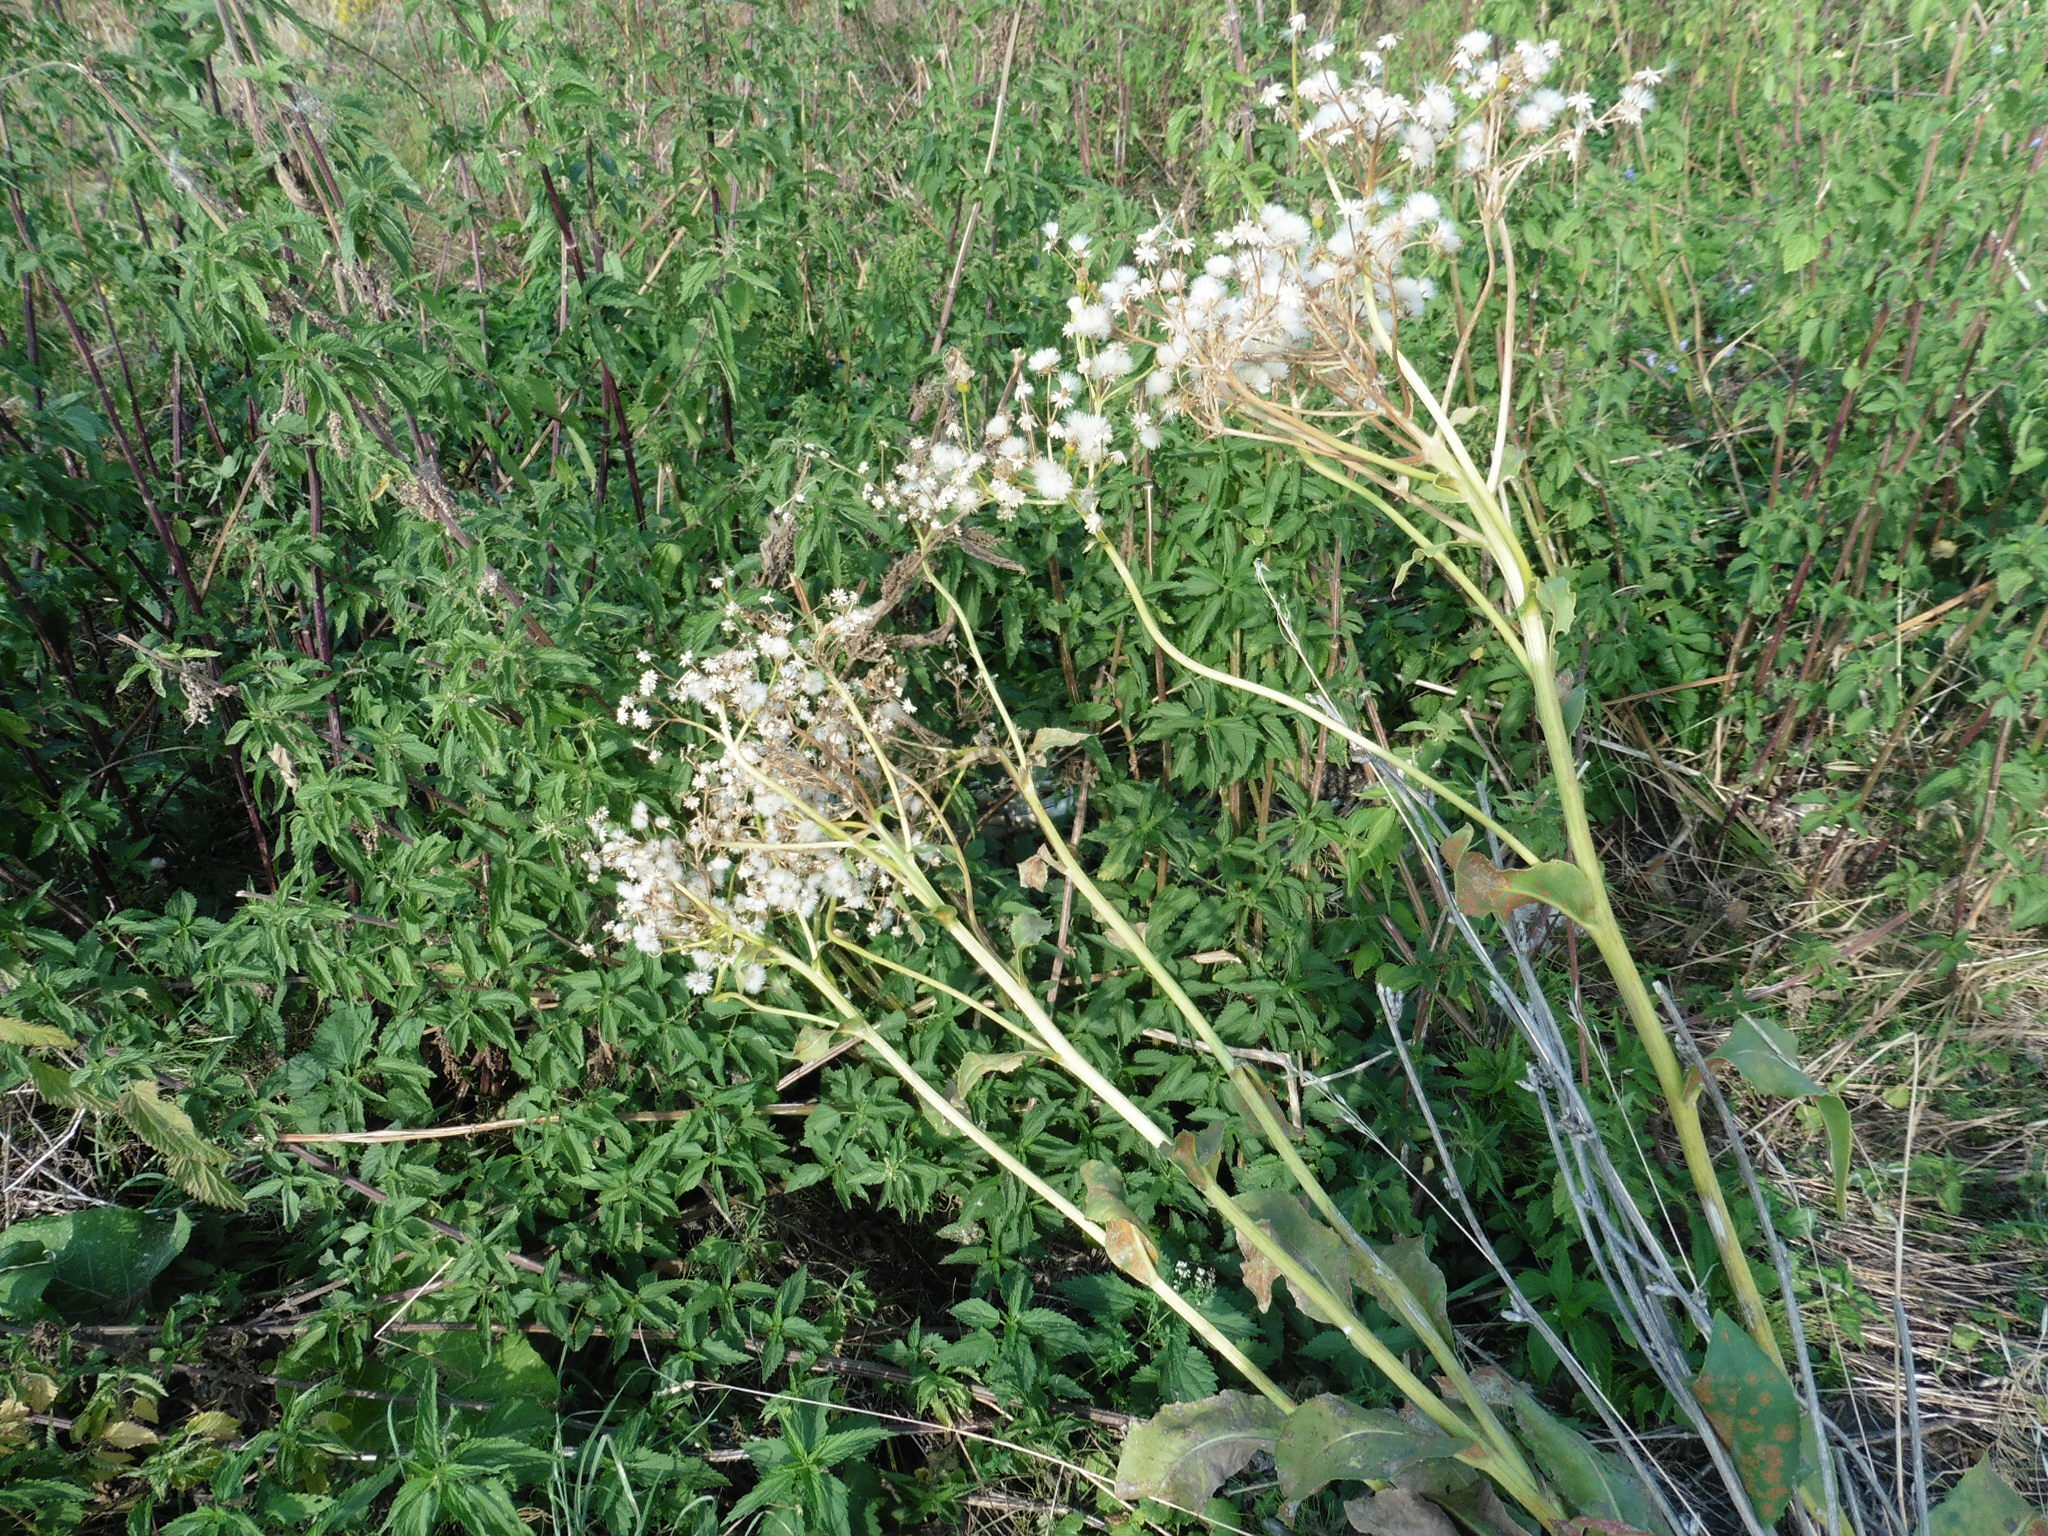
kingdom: Plantae
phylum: Tracheophyta
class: Magnoliopsida
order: Asterales
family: Asteraceae
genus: Senecio
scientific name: Senecio doria
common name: Golden ragwort
